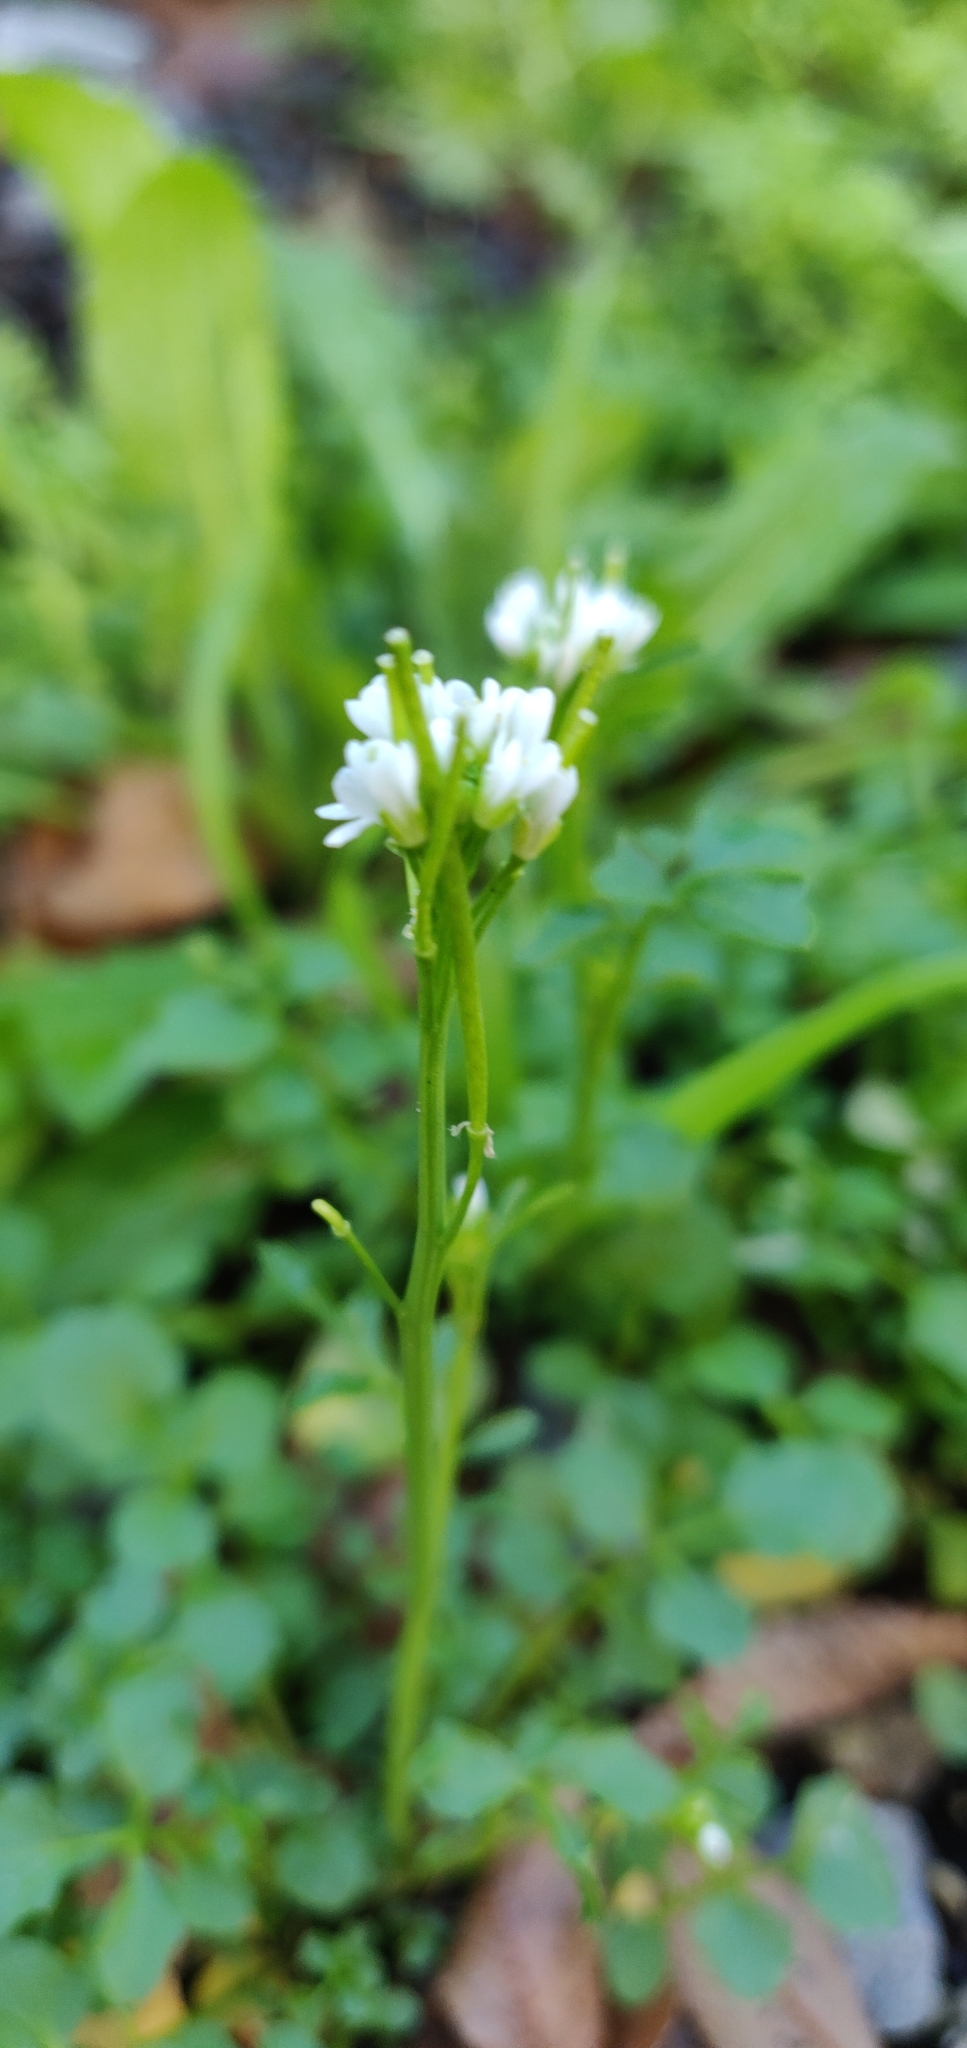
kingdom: Plantae
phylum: Tracheophyta
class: Magnoliopsida
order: Brassicales
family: Brassicaceae
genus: Cardamine
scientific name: Cardamine hirsuta
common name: Hairy bittercress
